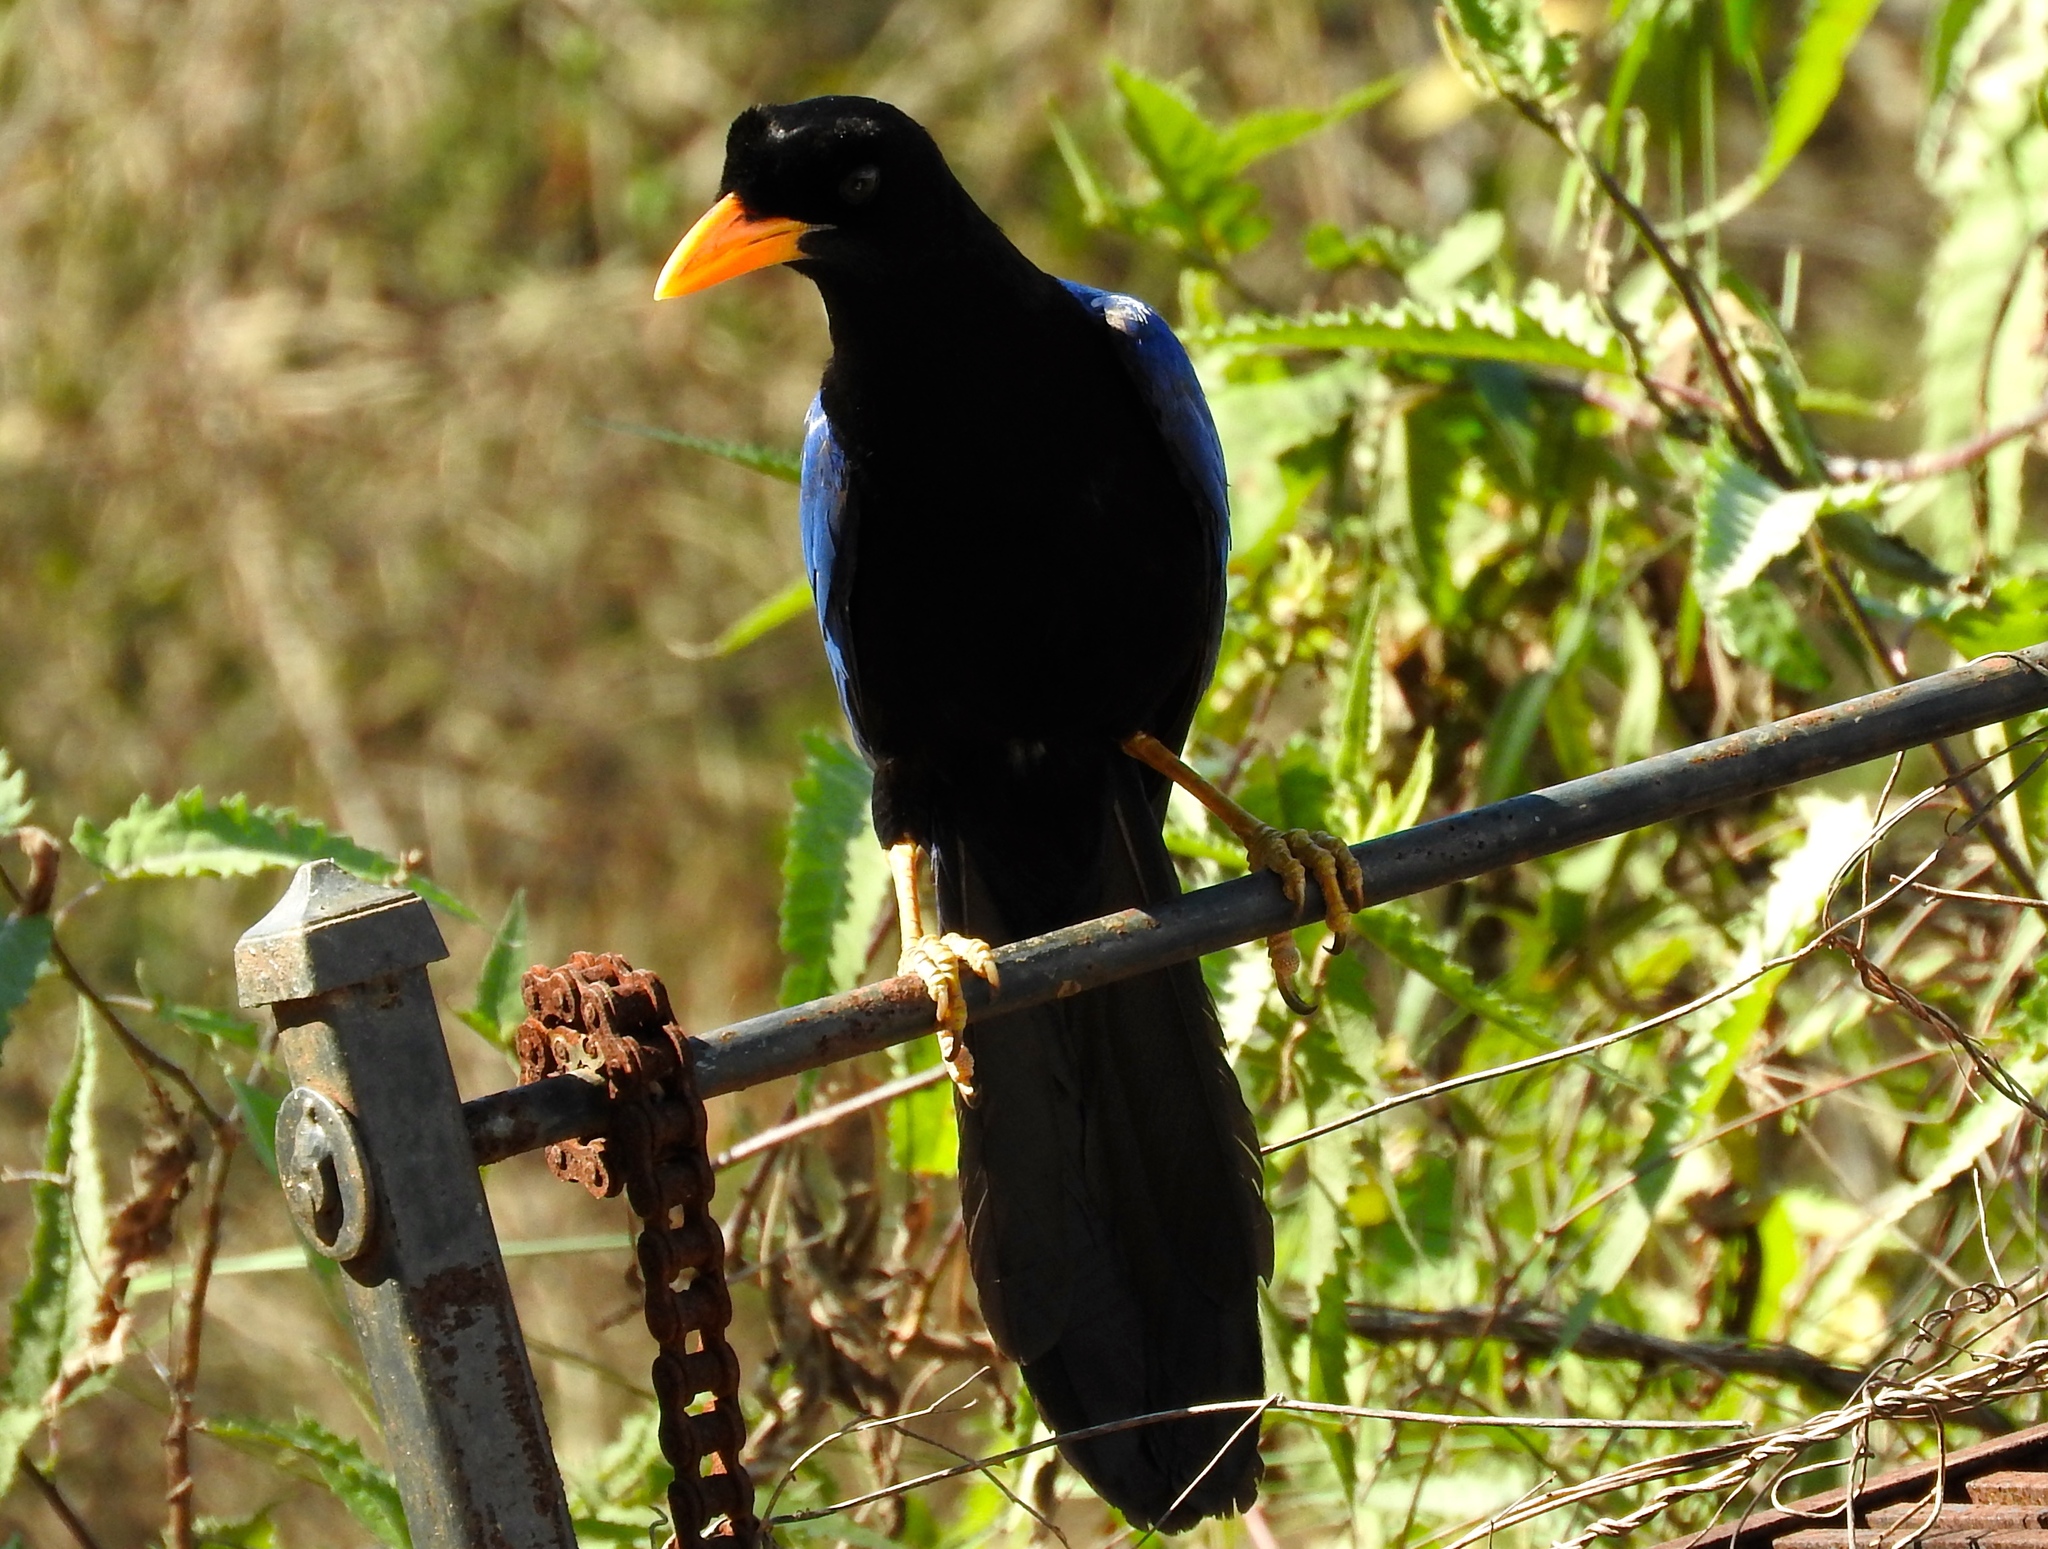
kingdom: Animalia
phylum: Chordata
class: Aves
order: Passeriformes
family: Corvidae
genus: Cyanocorax
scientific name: Cyanocorax beecheii
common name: Purplish-backed jay
